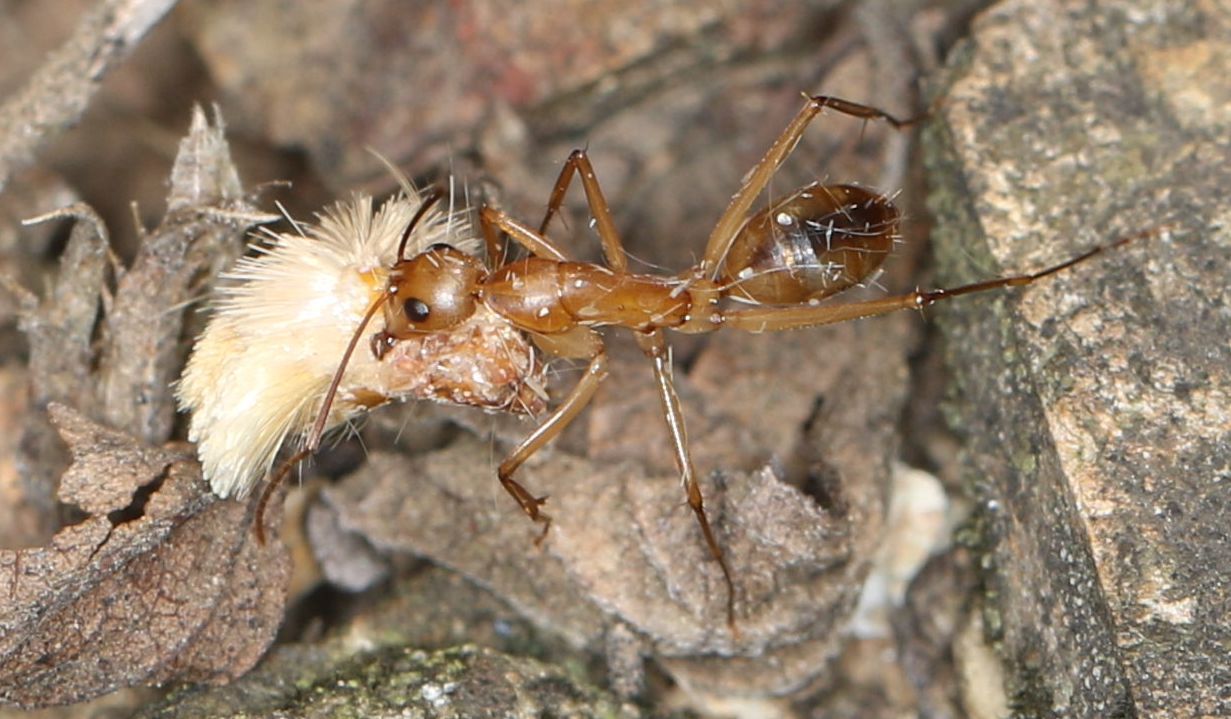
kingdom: Animalia
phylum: Arthropoda
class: Insecta
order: Hymenoptera
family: Formicidae
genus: Camponotus
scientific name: Camponotus hova
